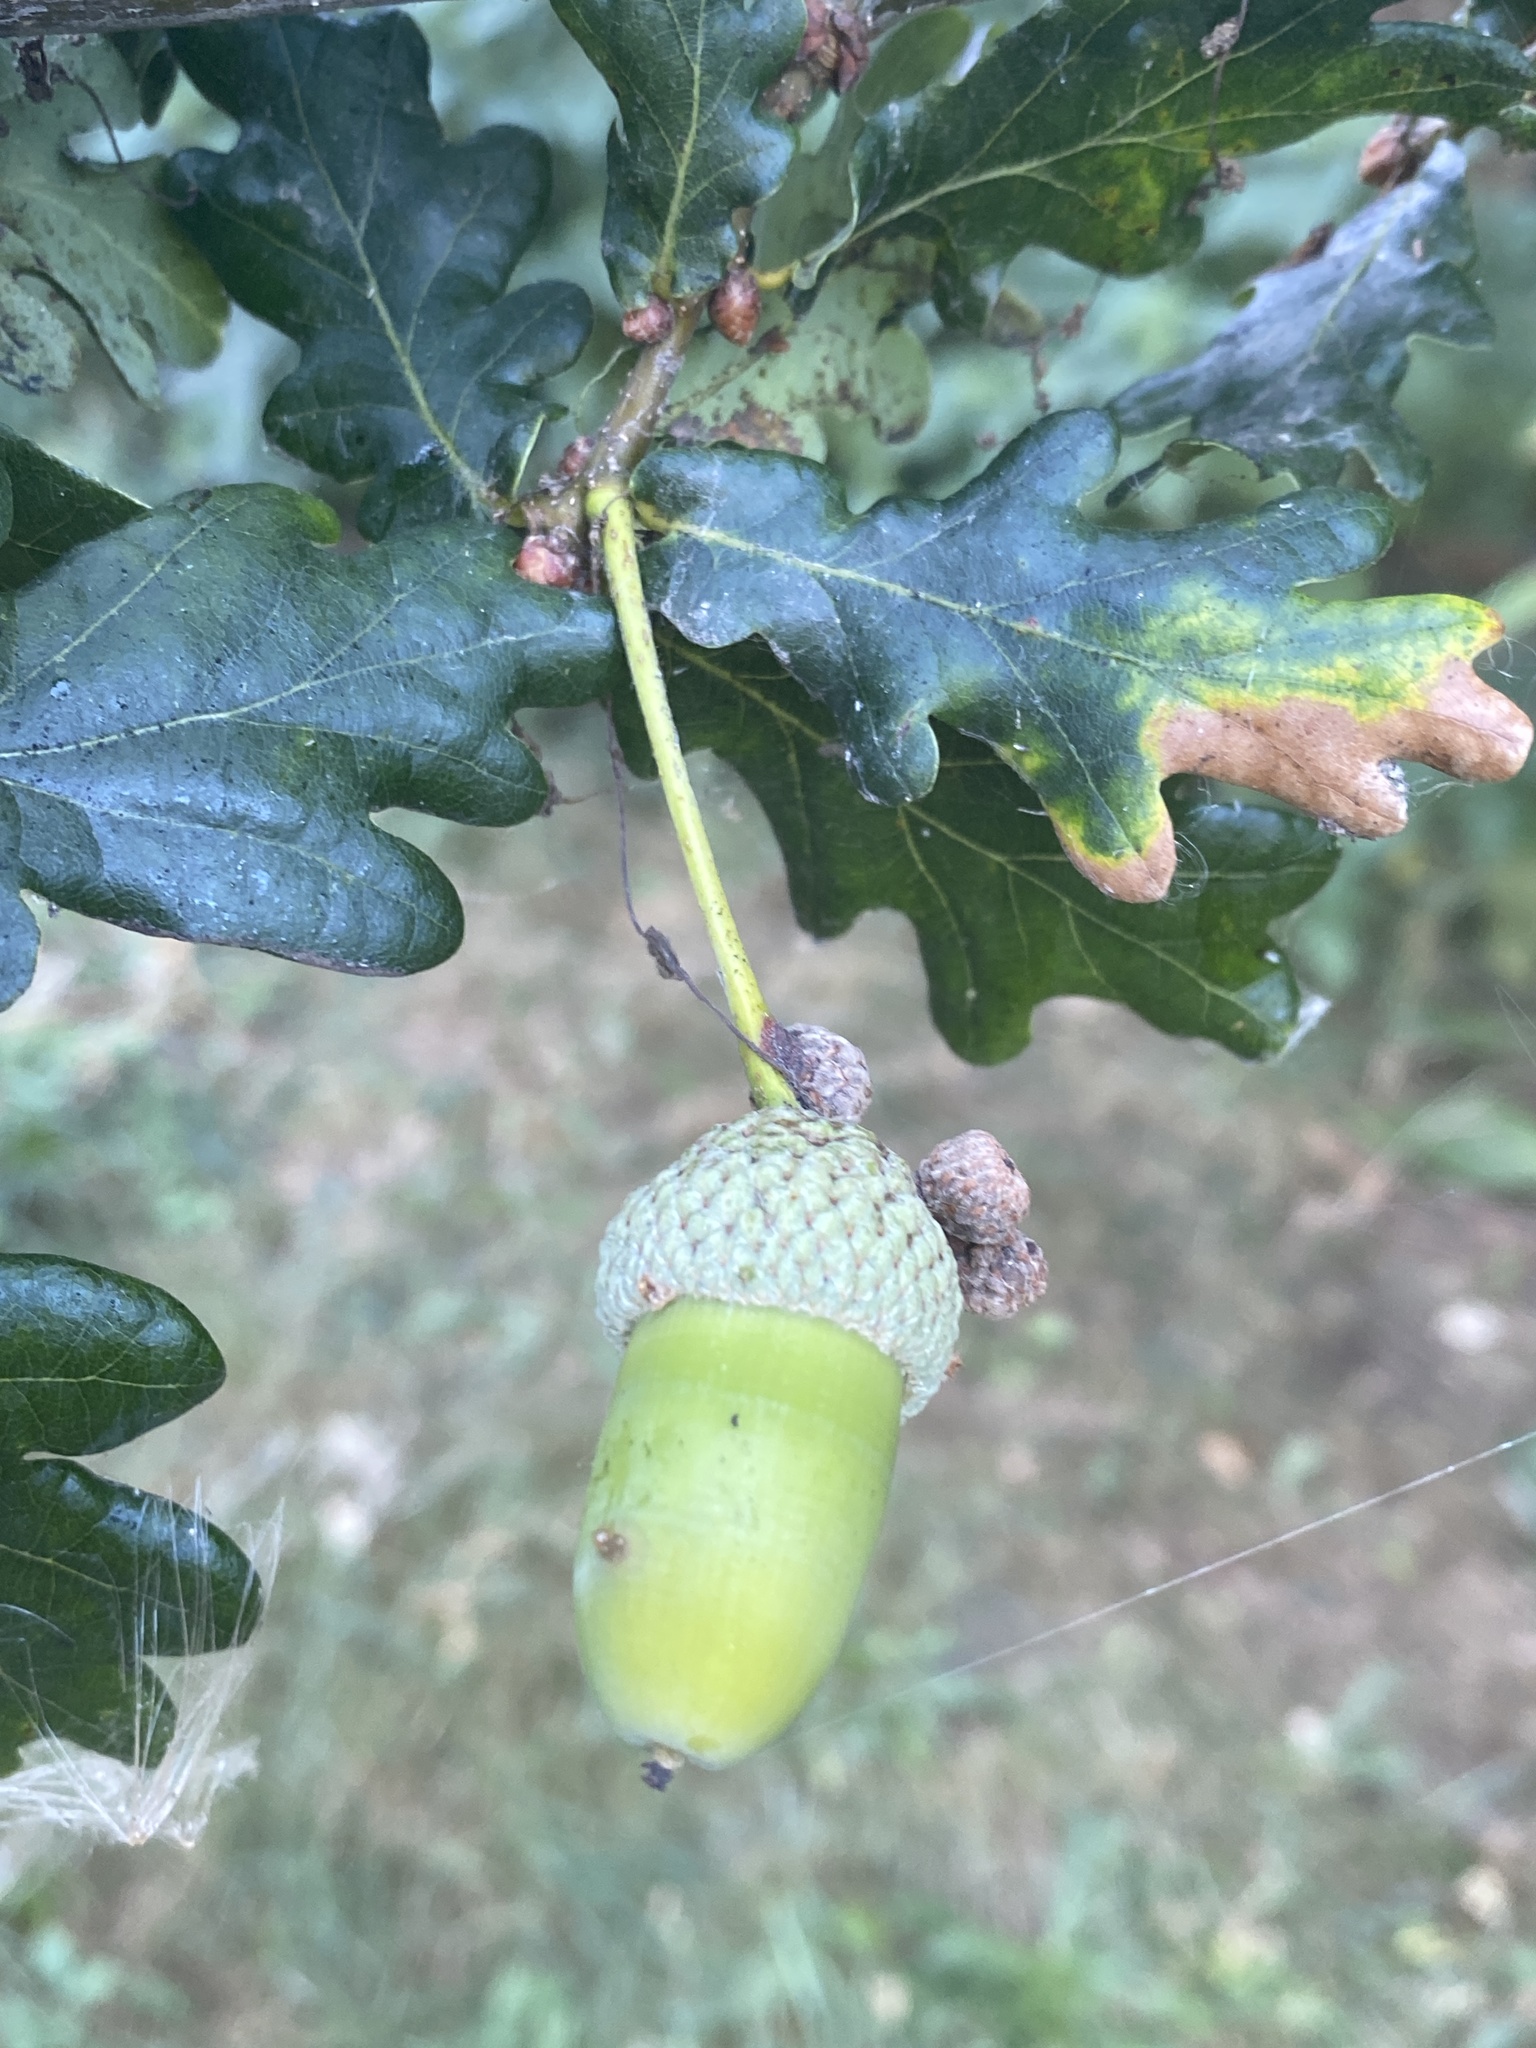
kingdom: Plantae
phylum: Tracheophyta
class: Magnoliopsida
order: Fagales
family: Fagaceae
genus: Quercus
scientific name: Quercus robur
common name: Pedunculate oak
